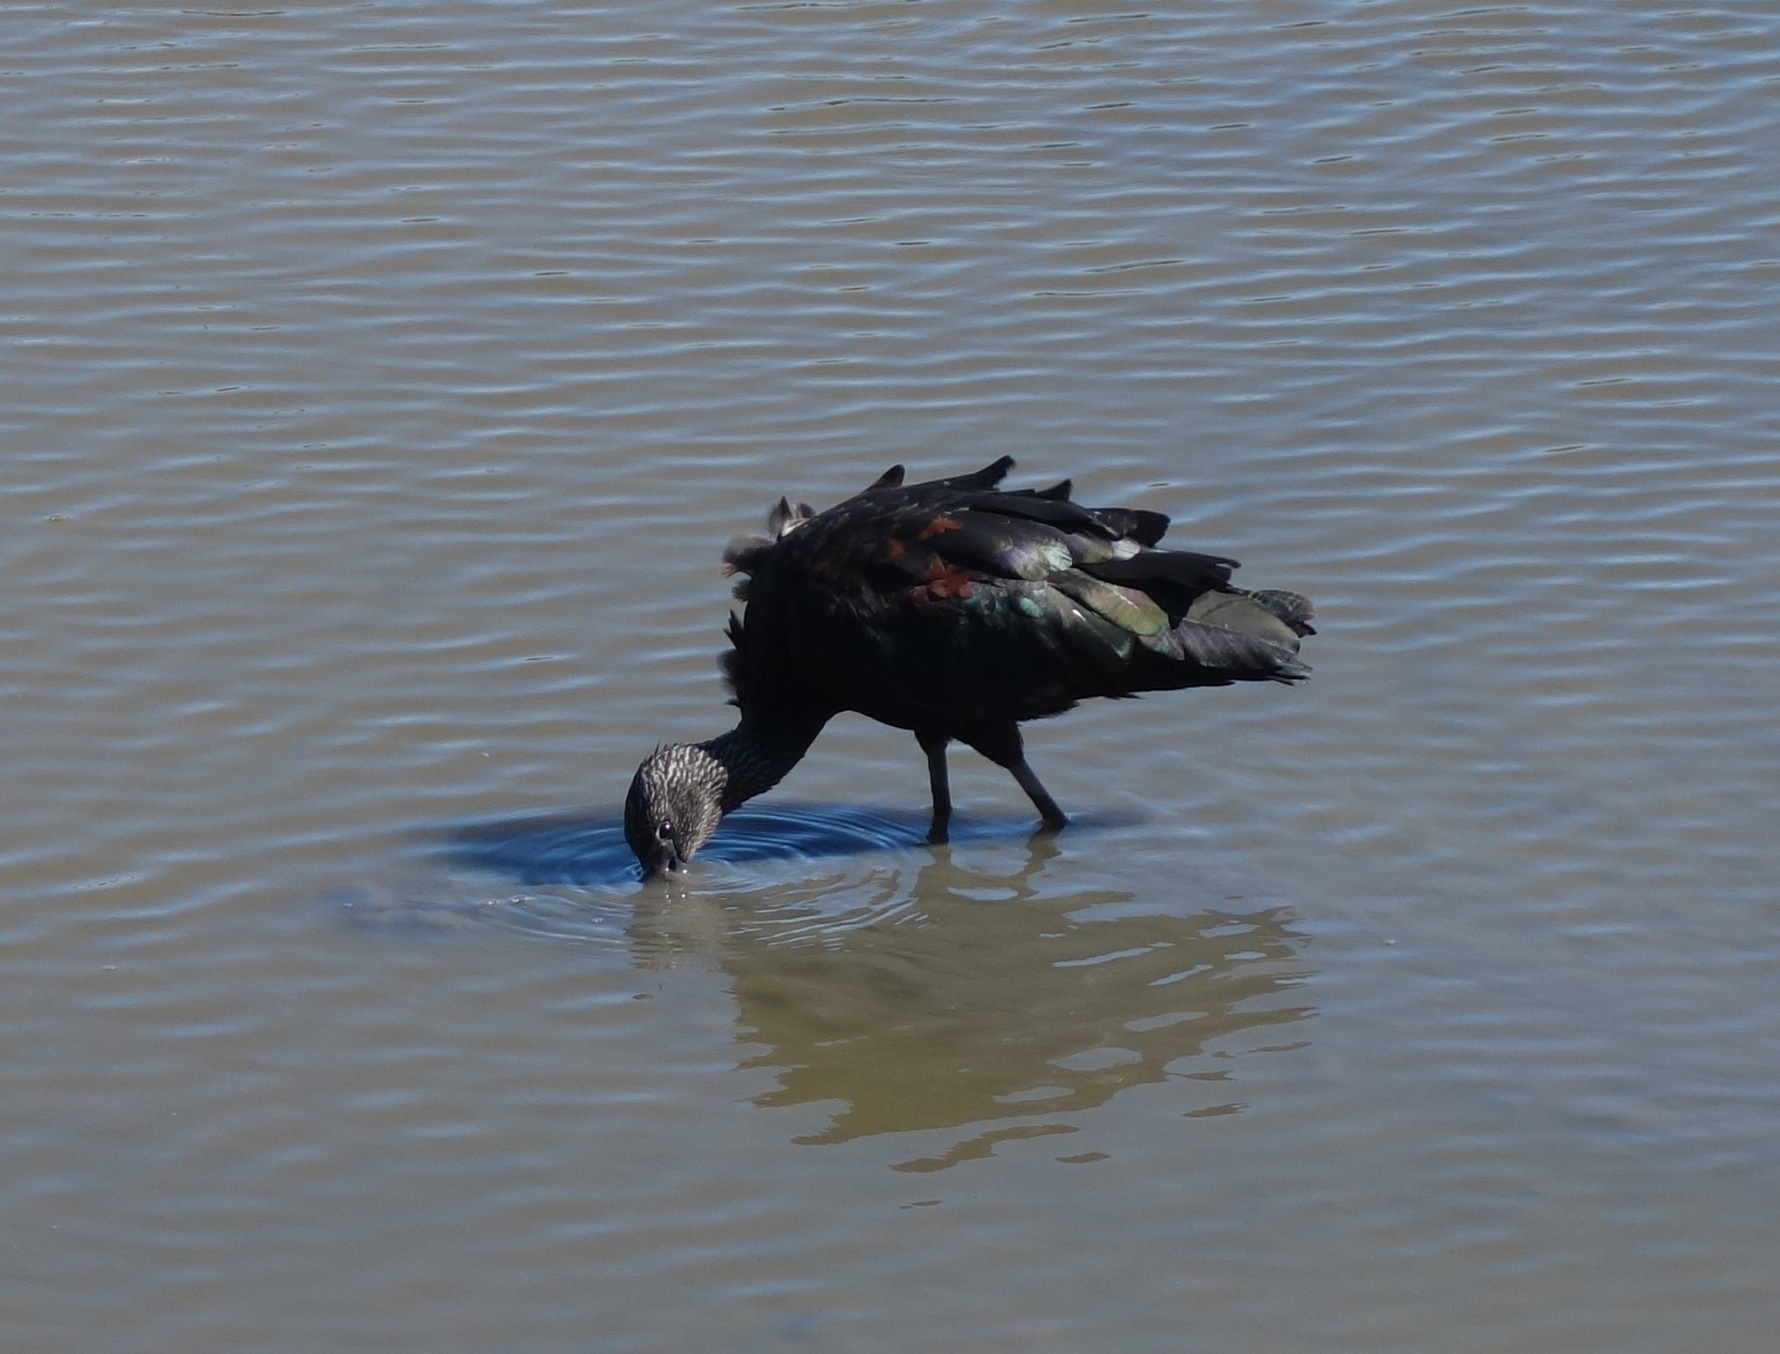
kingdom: Animalia
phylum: Chordata
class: Aves
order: Pelecaniformes
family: Threskiornithidae
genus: Plegadis
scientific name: Plegadis falcinellus
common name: Glossy ibis
